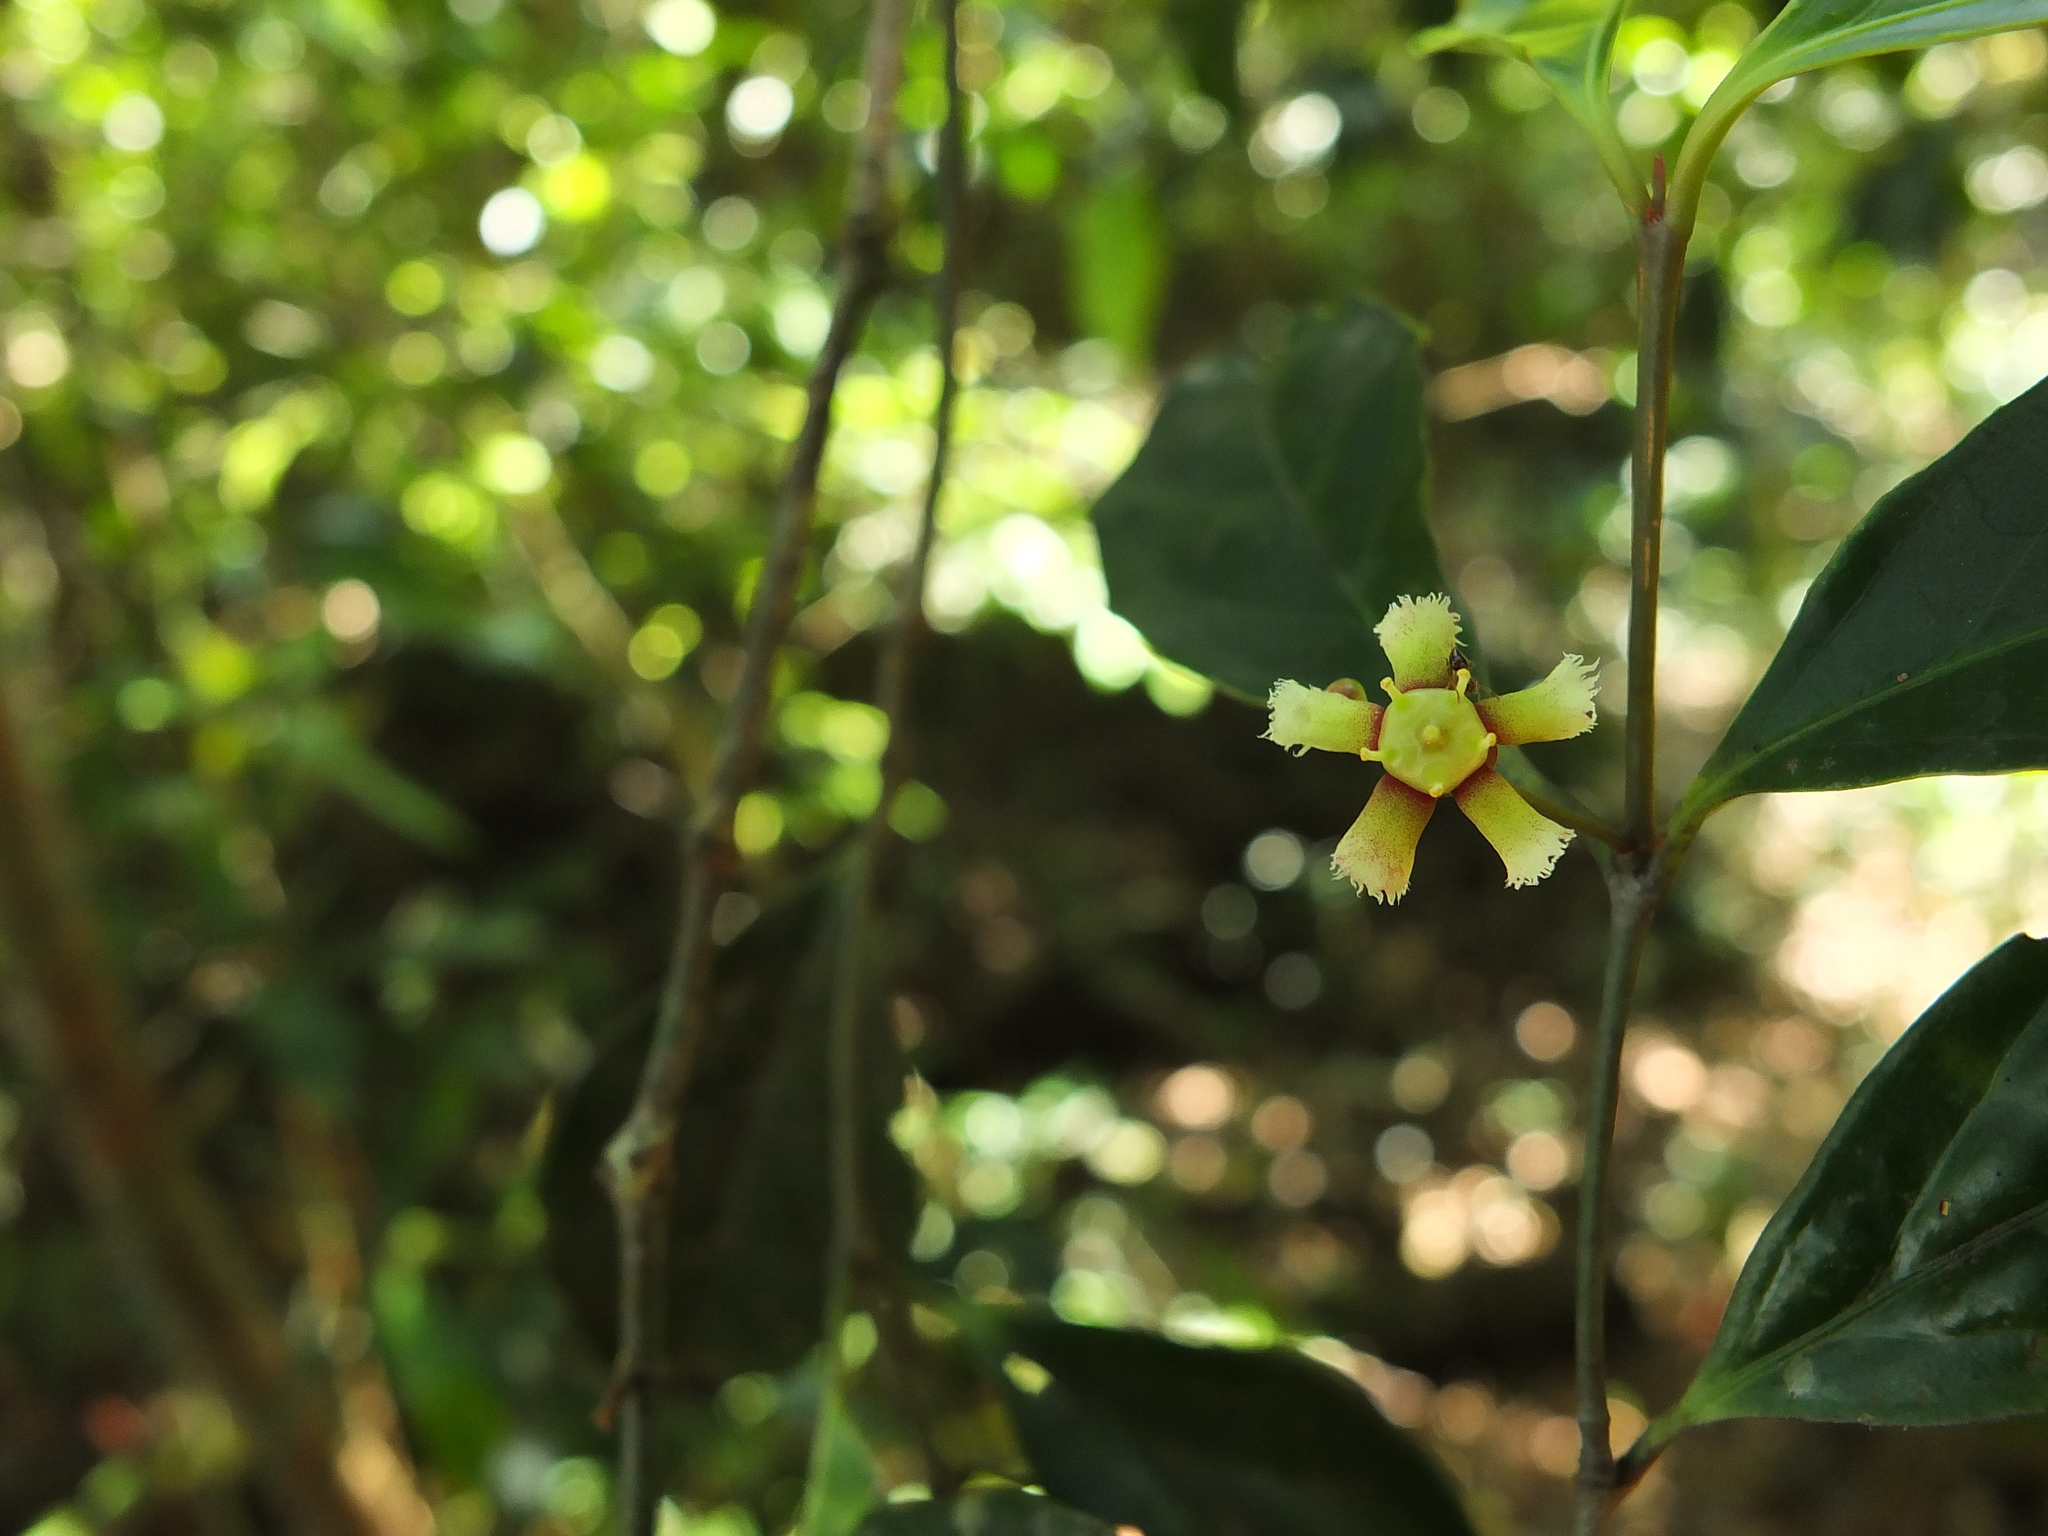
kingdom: Plantae
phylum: Tracheophyta
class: Magnoliopsida
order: Celastrales
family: Celastraceae
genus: Euonymus
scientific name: Euonymus indicus
